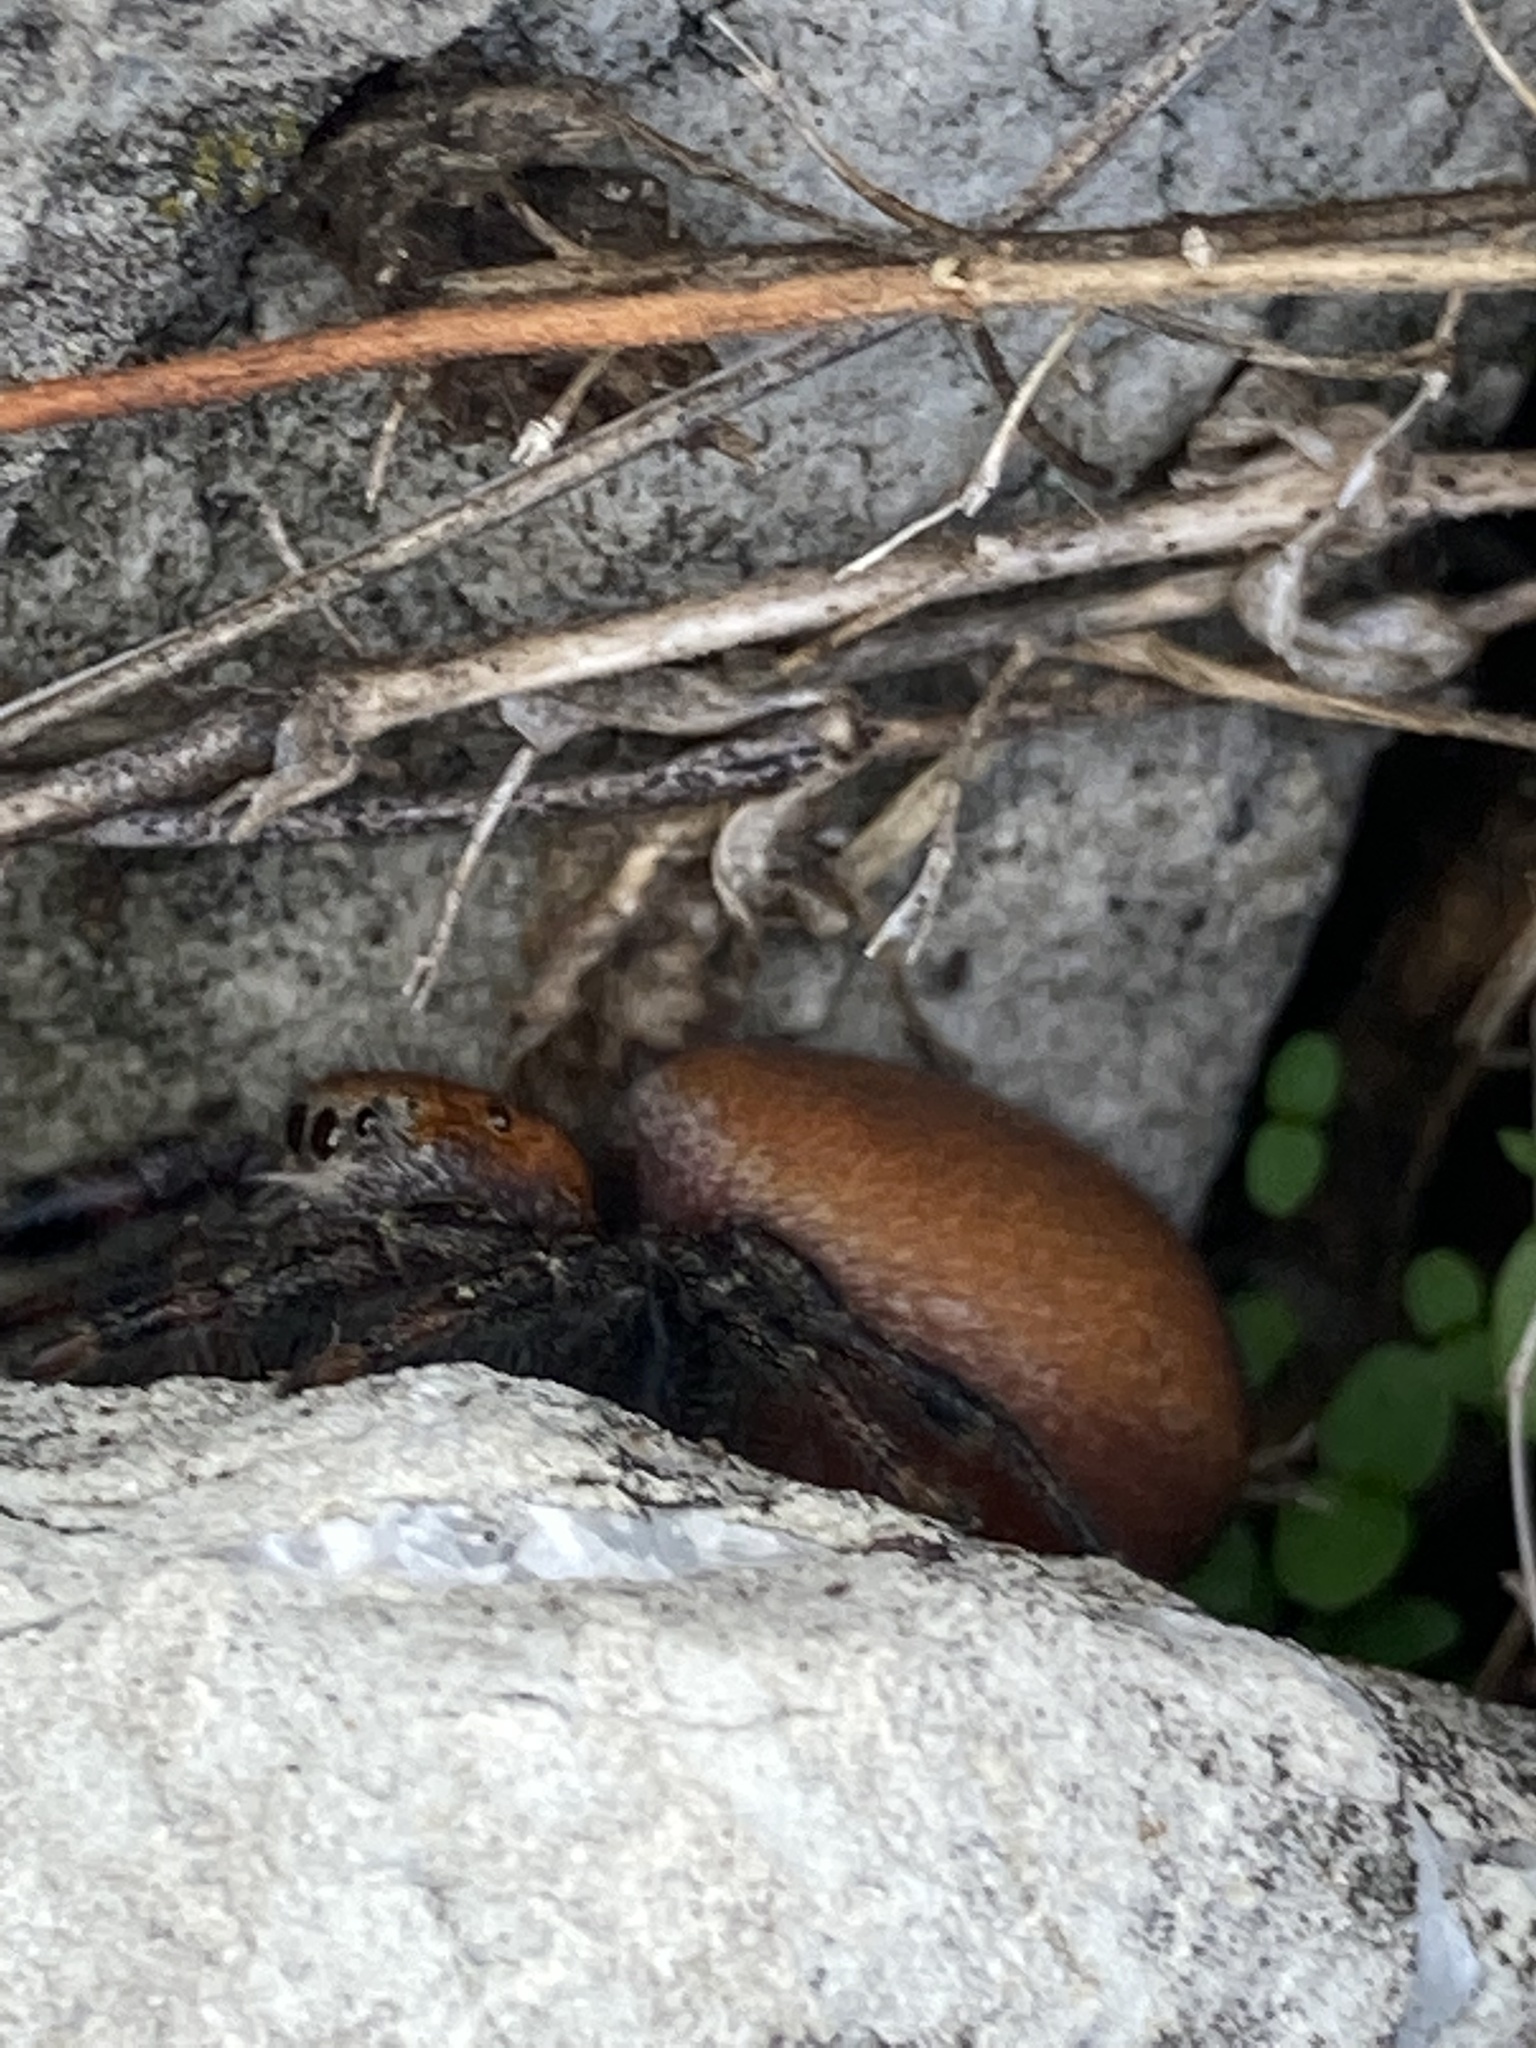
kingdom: Animalia
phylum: Arthropoda
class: Arachnida
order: Araneae
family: Salticidae
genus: Phidippus
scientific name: Phidippus cardinalis
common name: Cardinal jumper
